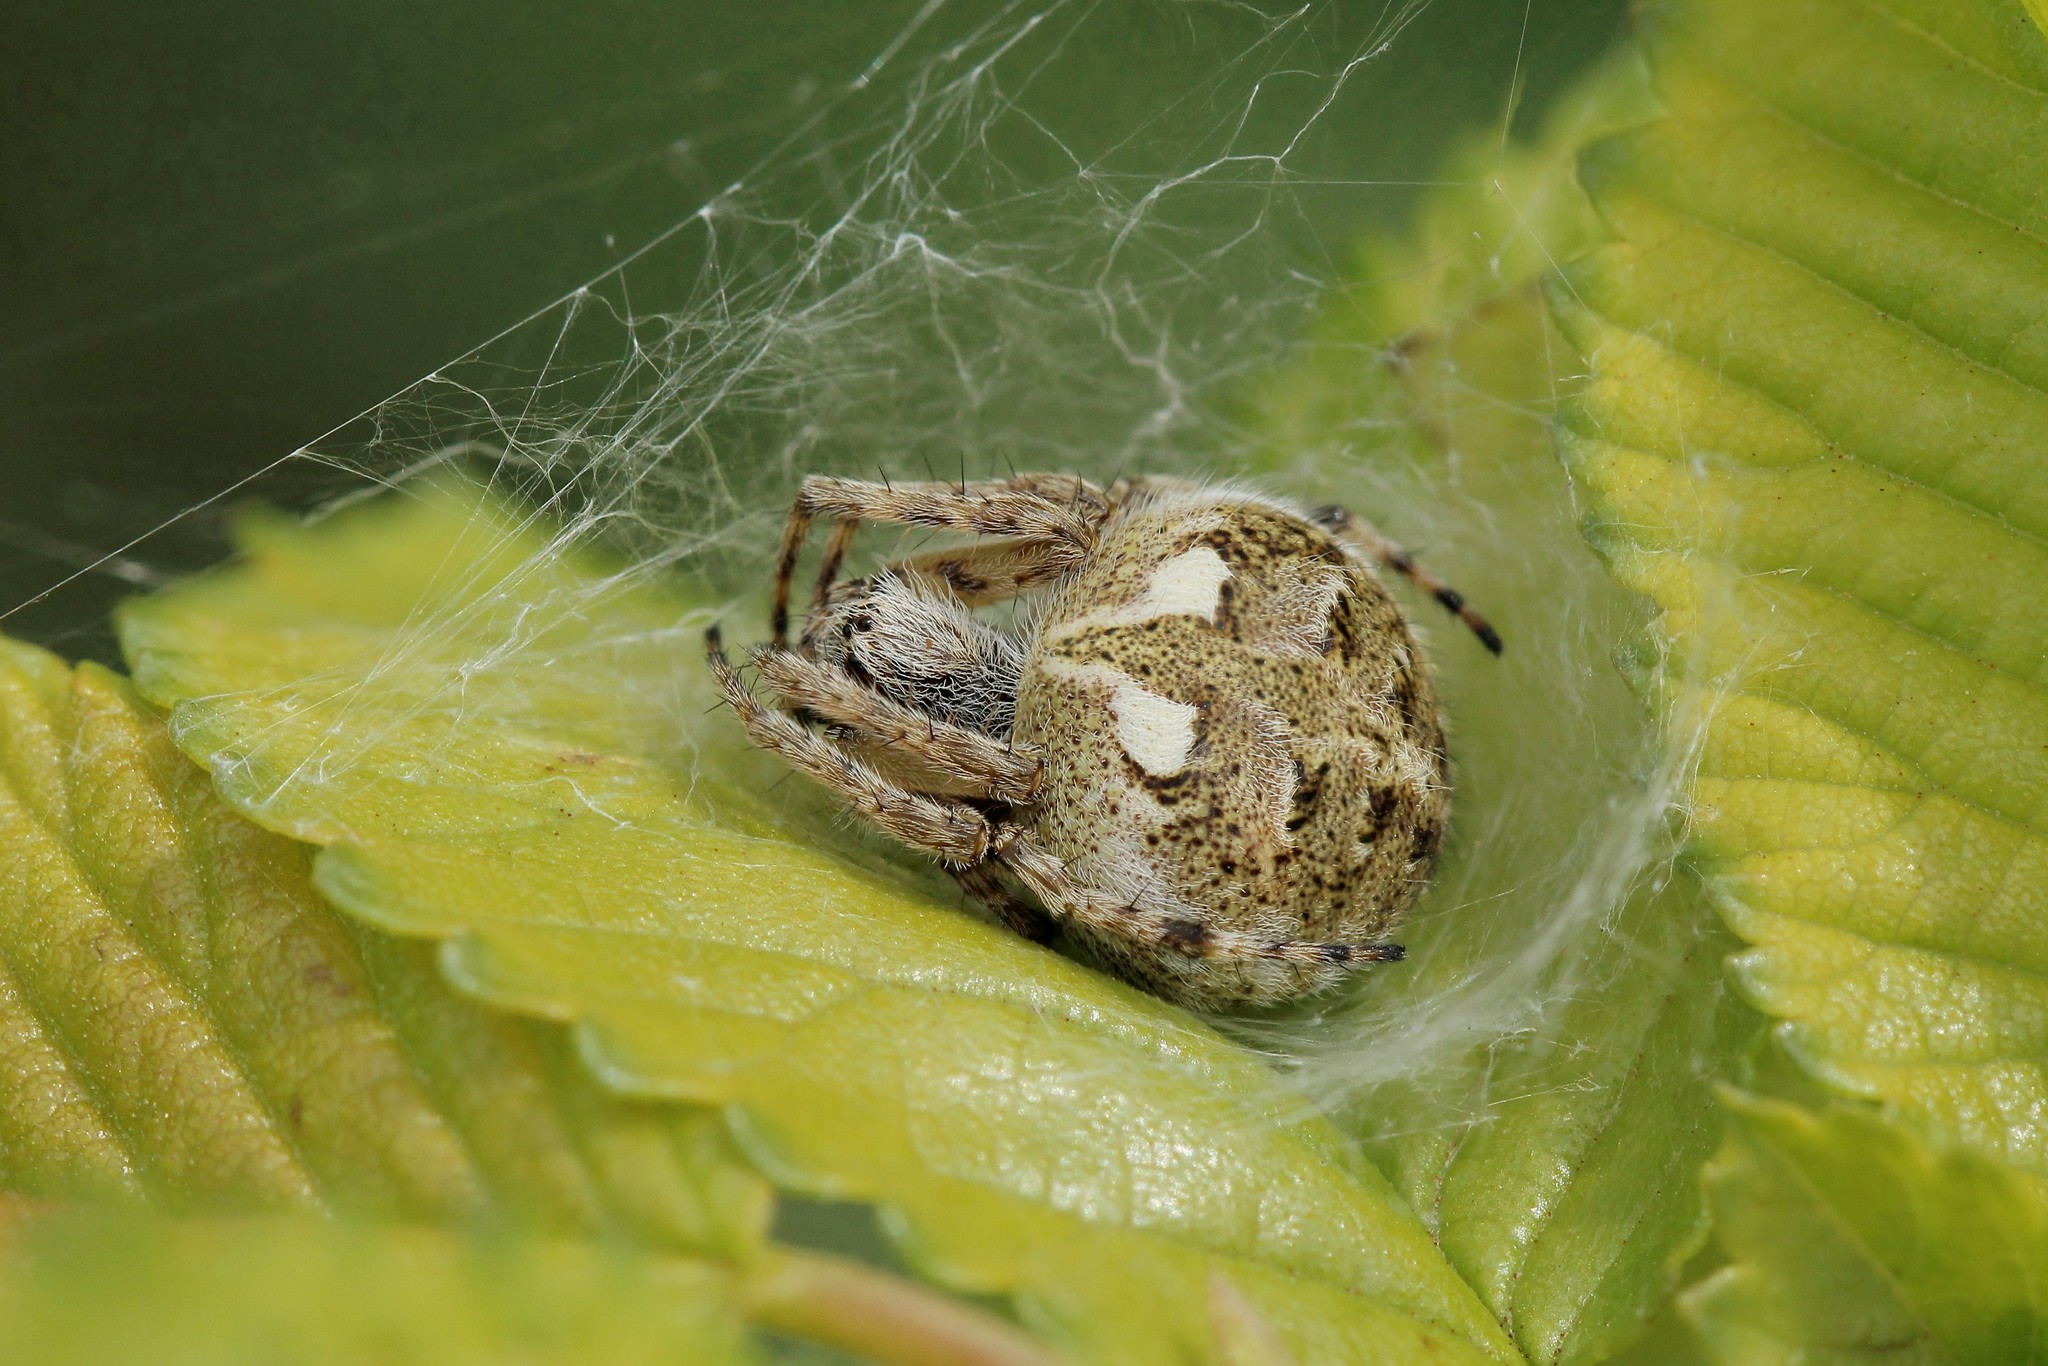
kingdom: Animalia
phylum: Arthropoda
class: Arachnida
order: Araneae
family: Araneidae
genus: Agalenatea
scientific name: Agalenatea redii
